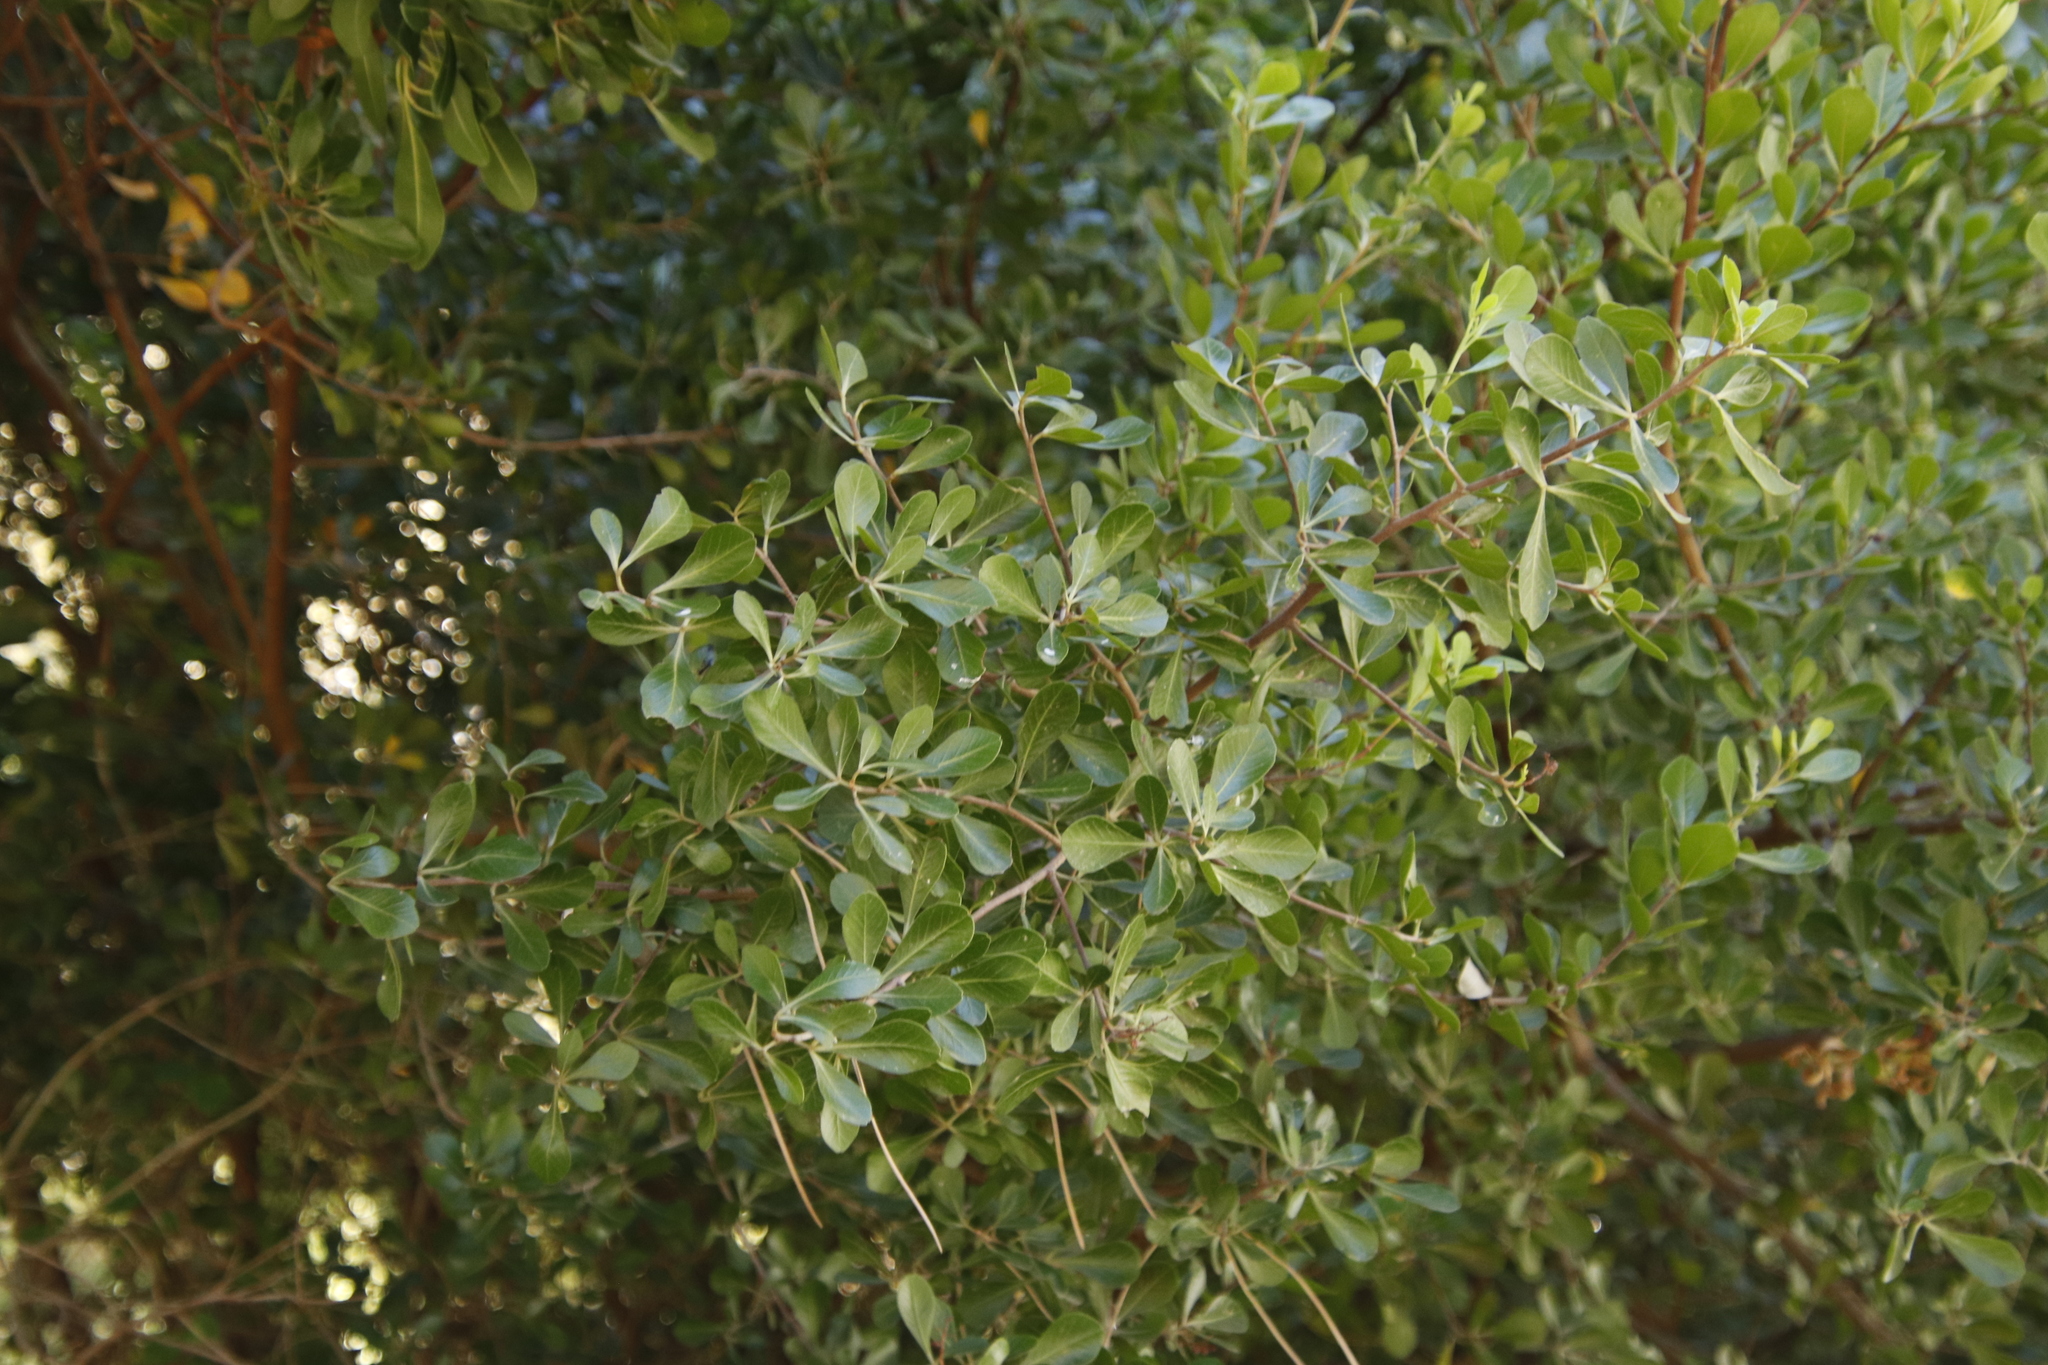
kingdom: Plantae
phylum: Tracheophyta
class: Magnoliopsida
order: Sapindales
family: Anacardiaceae
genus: Searsia
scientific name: Searsia lucida
